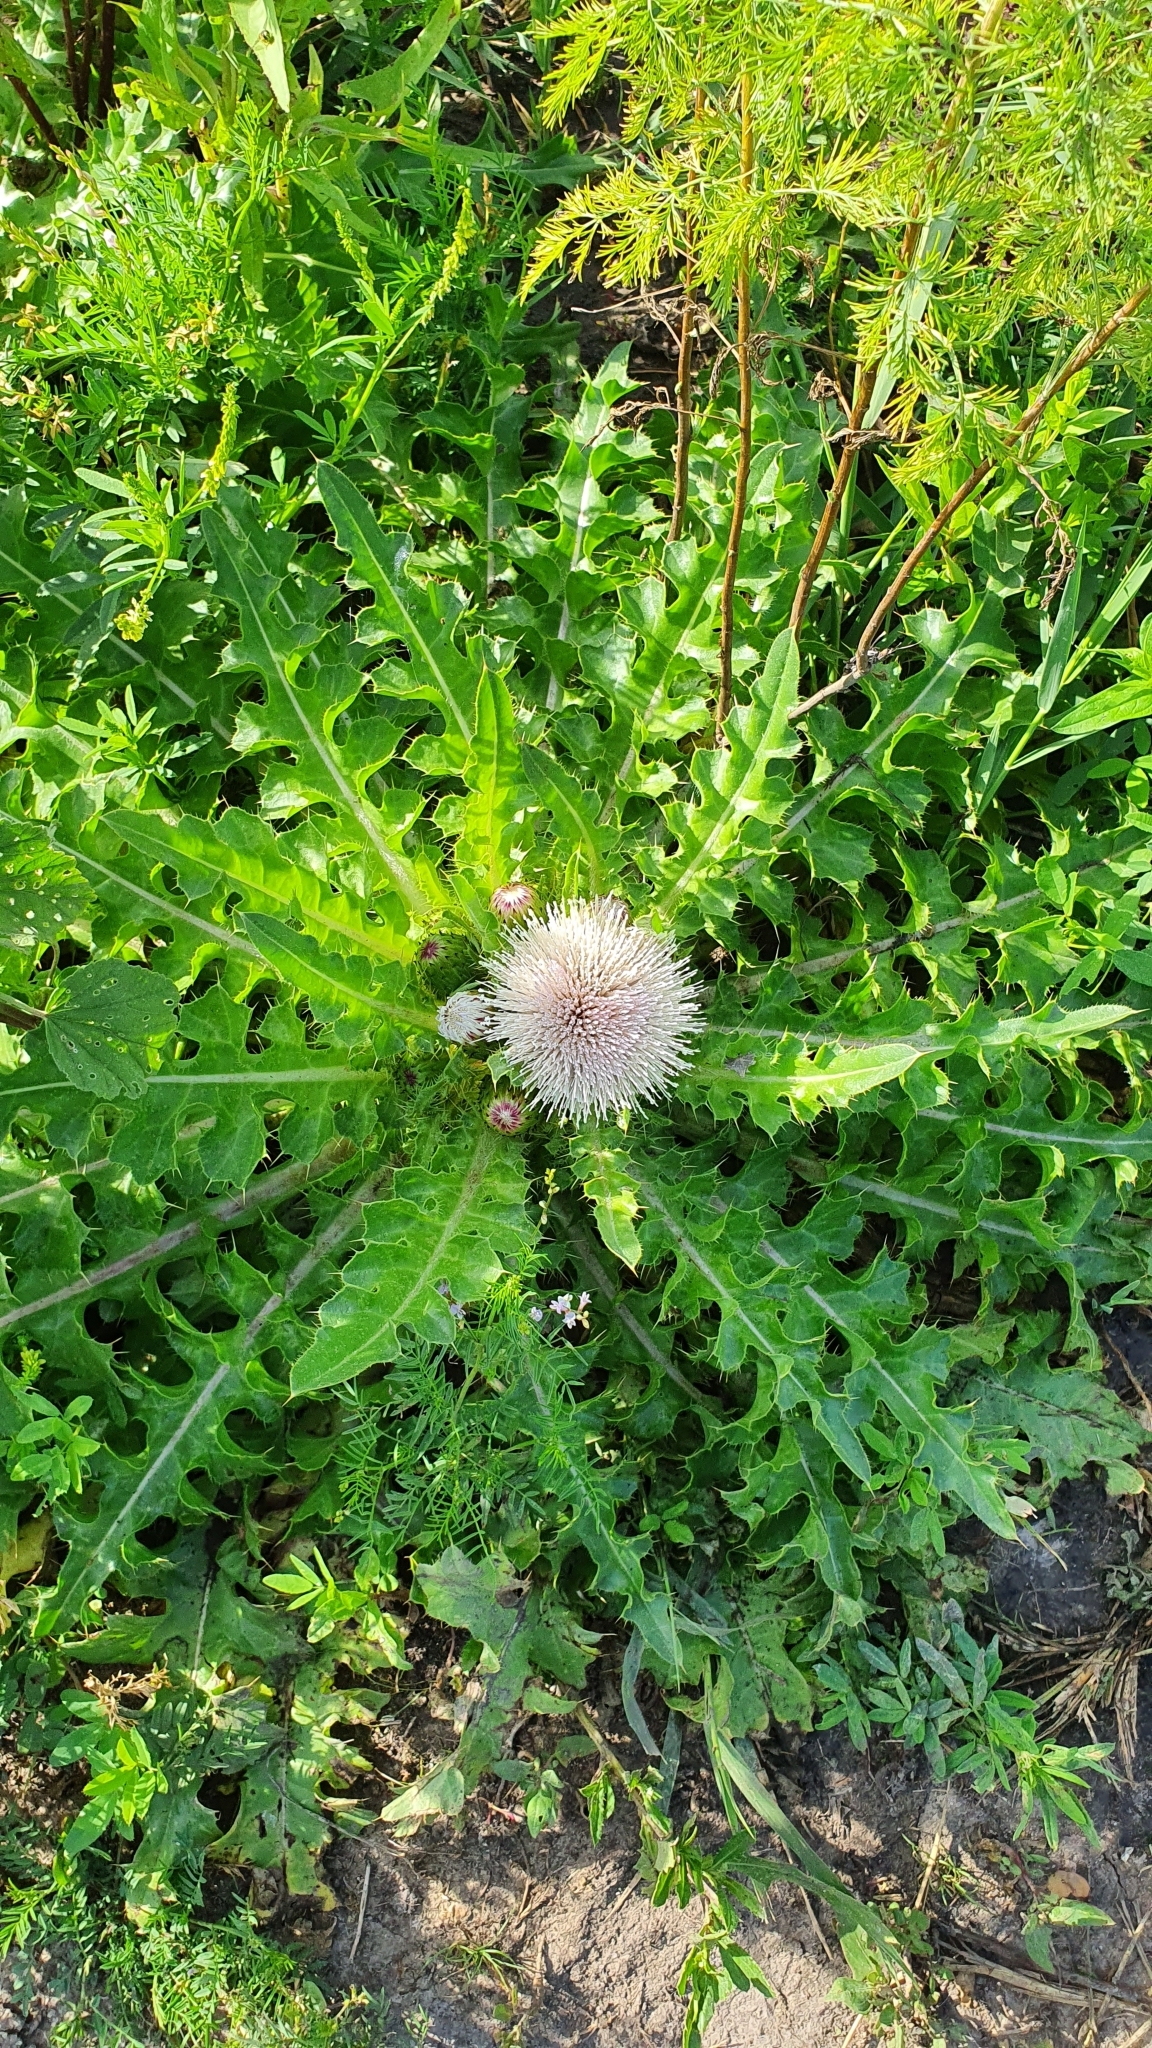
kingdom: Plantae
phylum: Tracheophyta
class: Magnoliopsida
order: Asterales
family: Asteraceae
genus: Cirsium
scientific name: Cirsium esculentum
